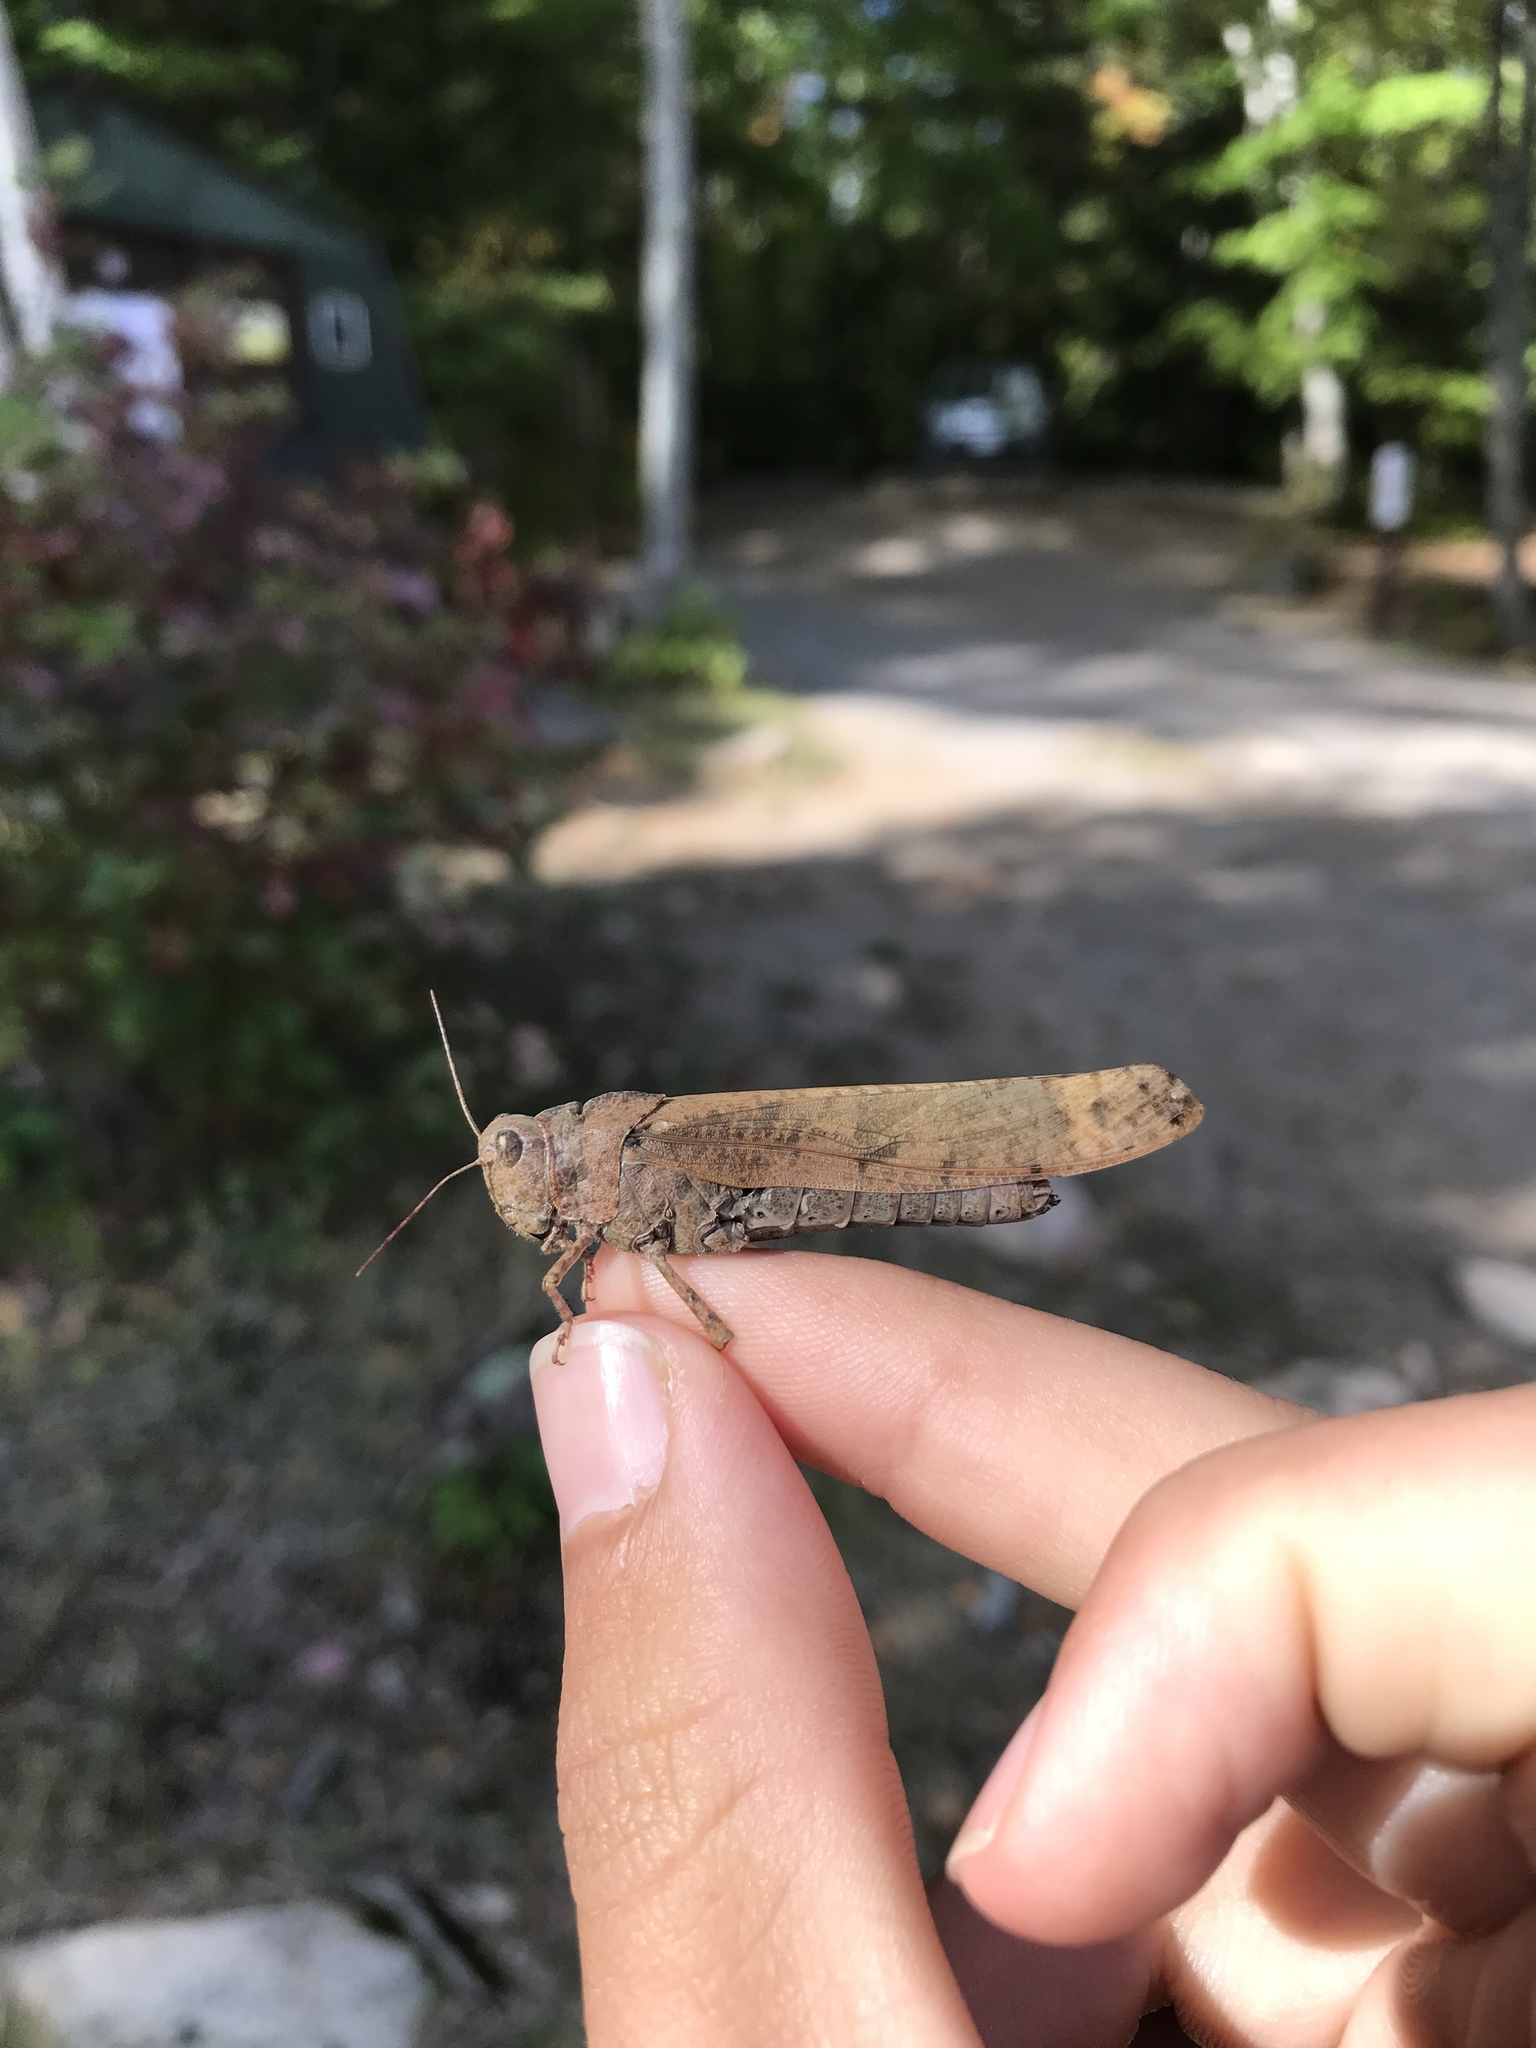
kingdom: Animalia
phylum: Arthropoda
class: Insecta
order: Orthoptera
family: Acrididae
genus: Dissosteira
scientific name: Dissosteira carolina
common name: Carolina grasshopper
